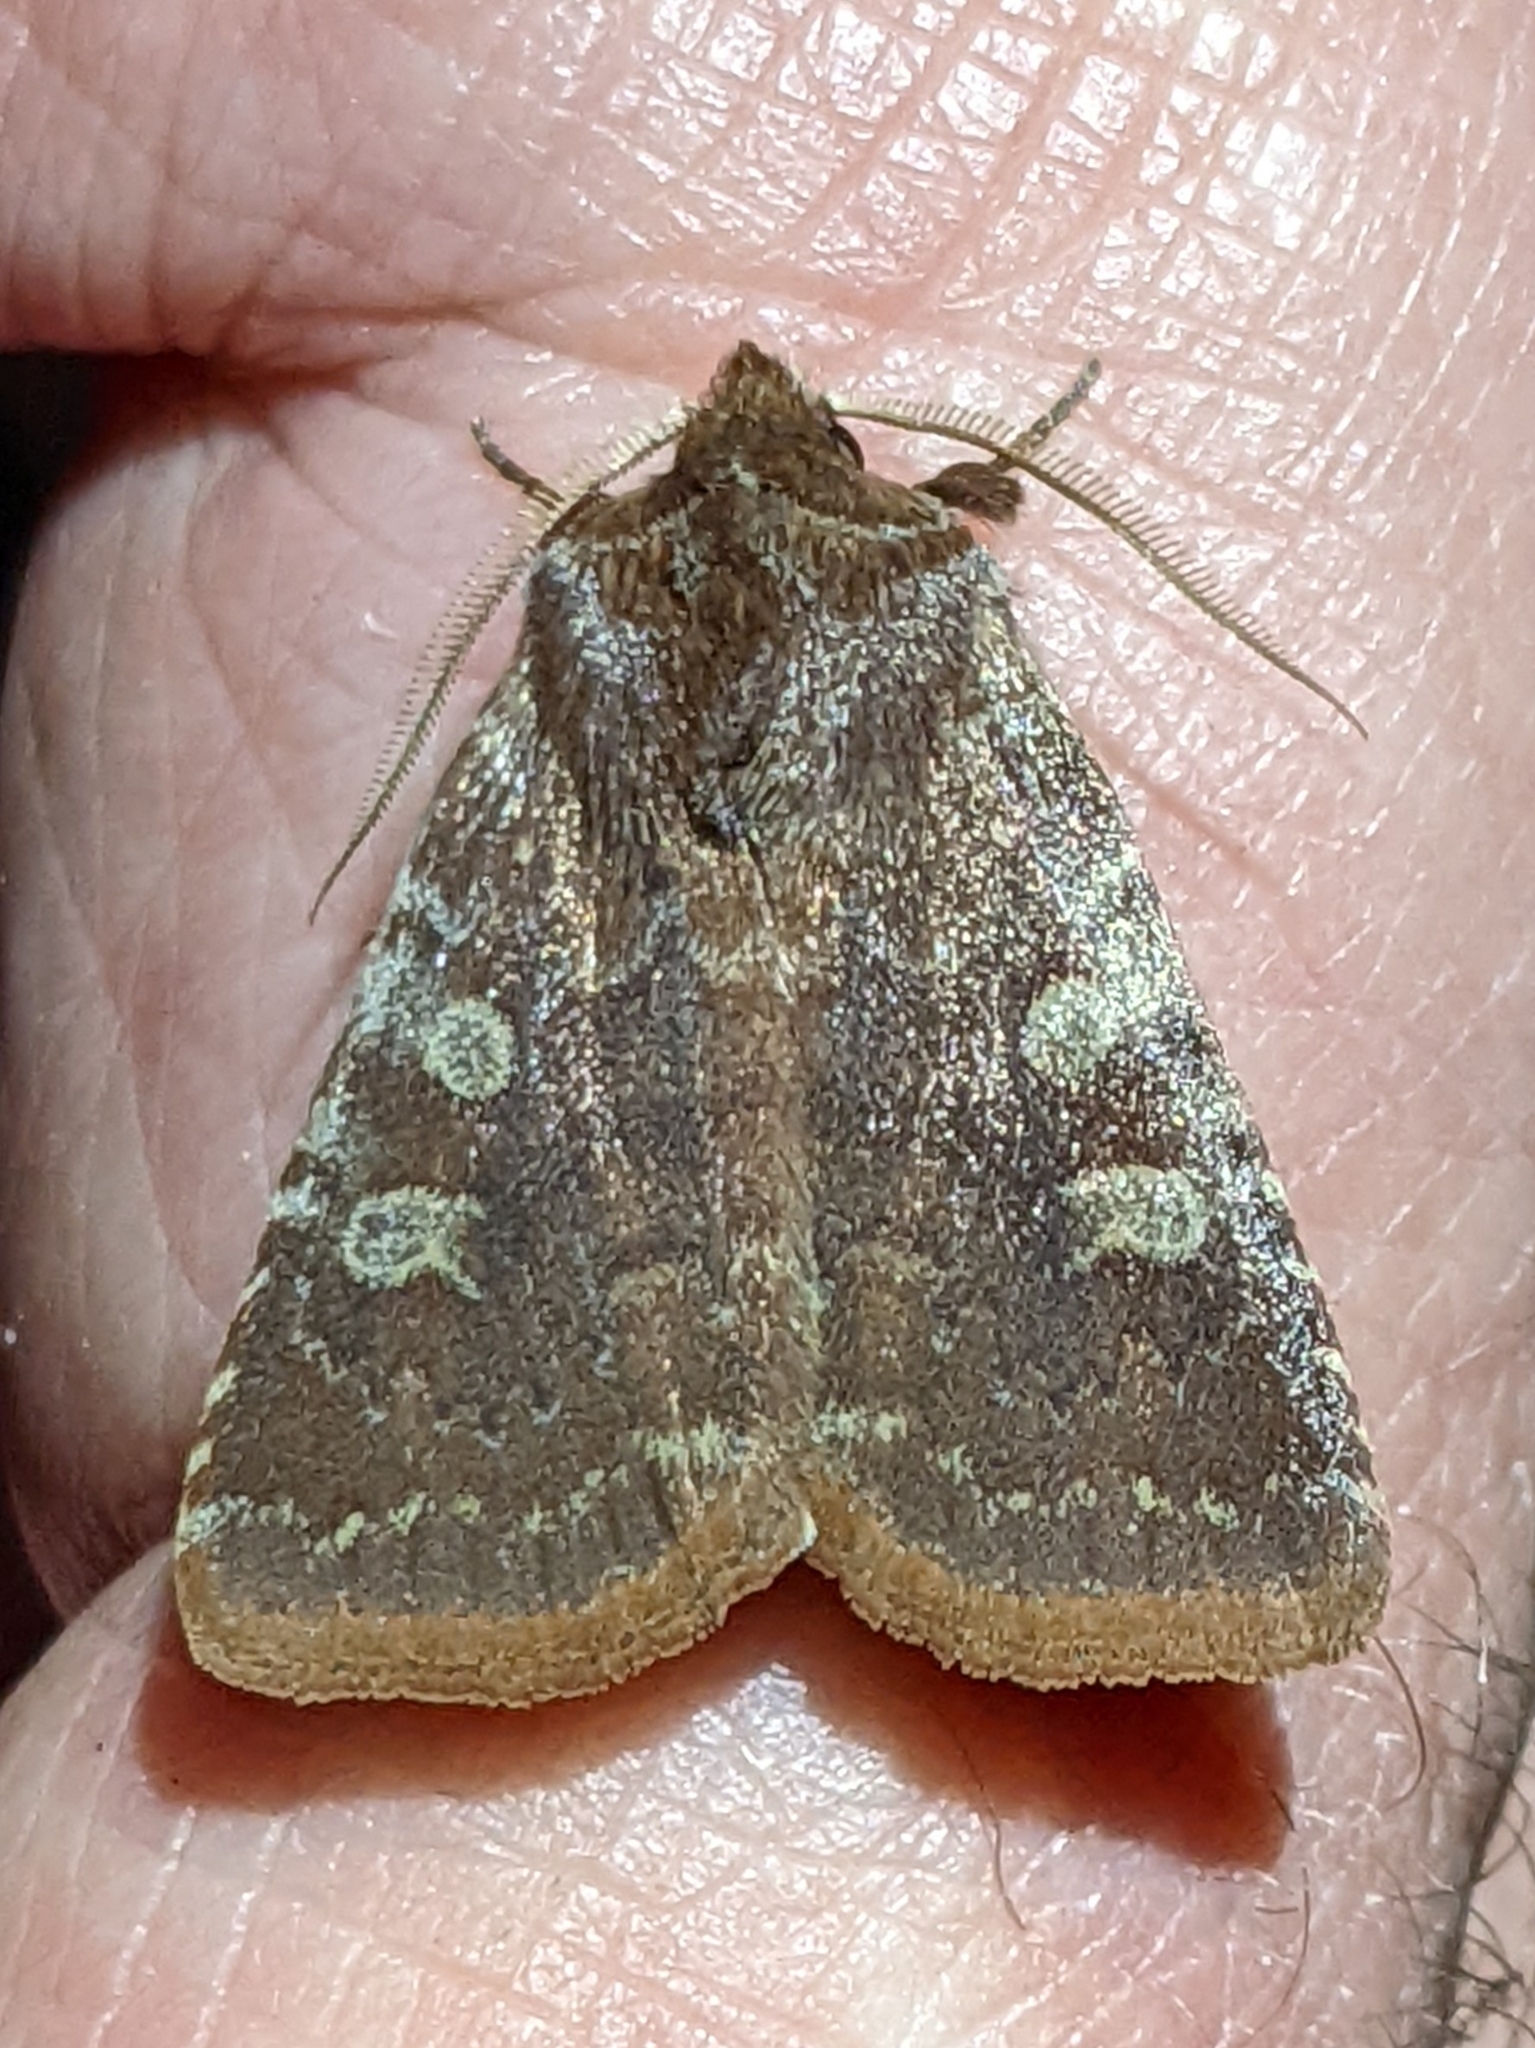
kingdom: Animalia
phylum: Arthropoda
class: Insecta
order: Lepidoptera
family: Noctuidae
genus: Cerastis
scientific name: Cerastis tenebrifera
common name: Reddish speckled dart
